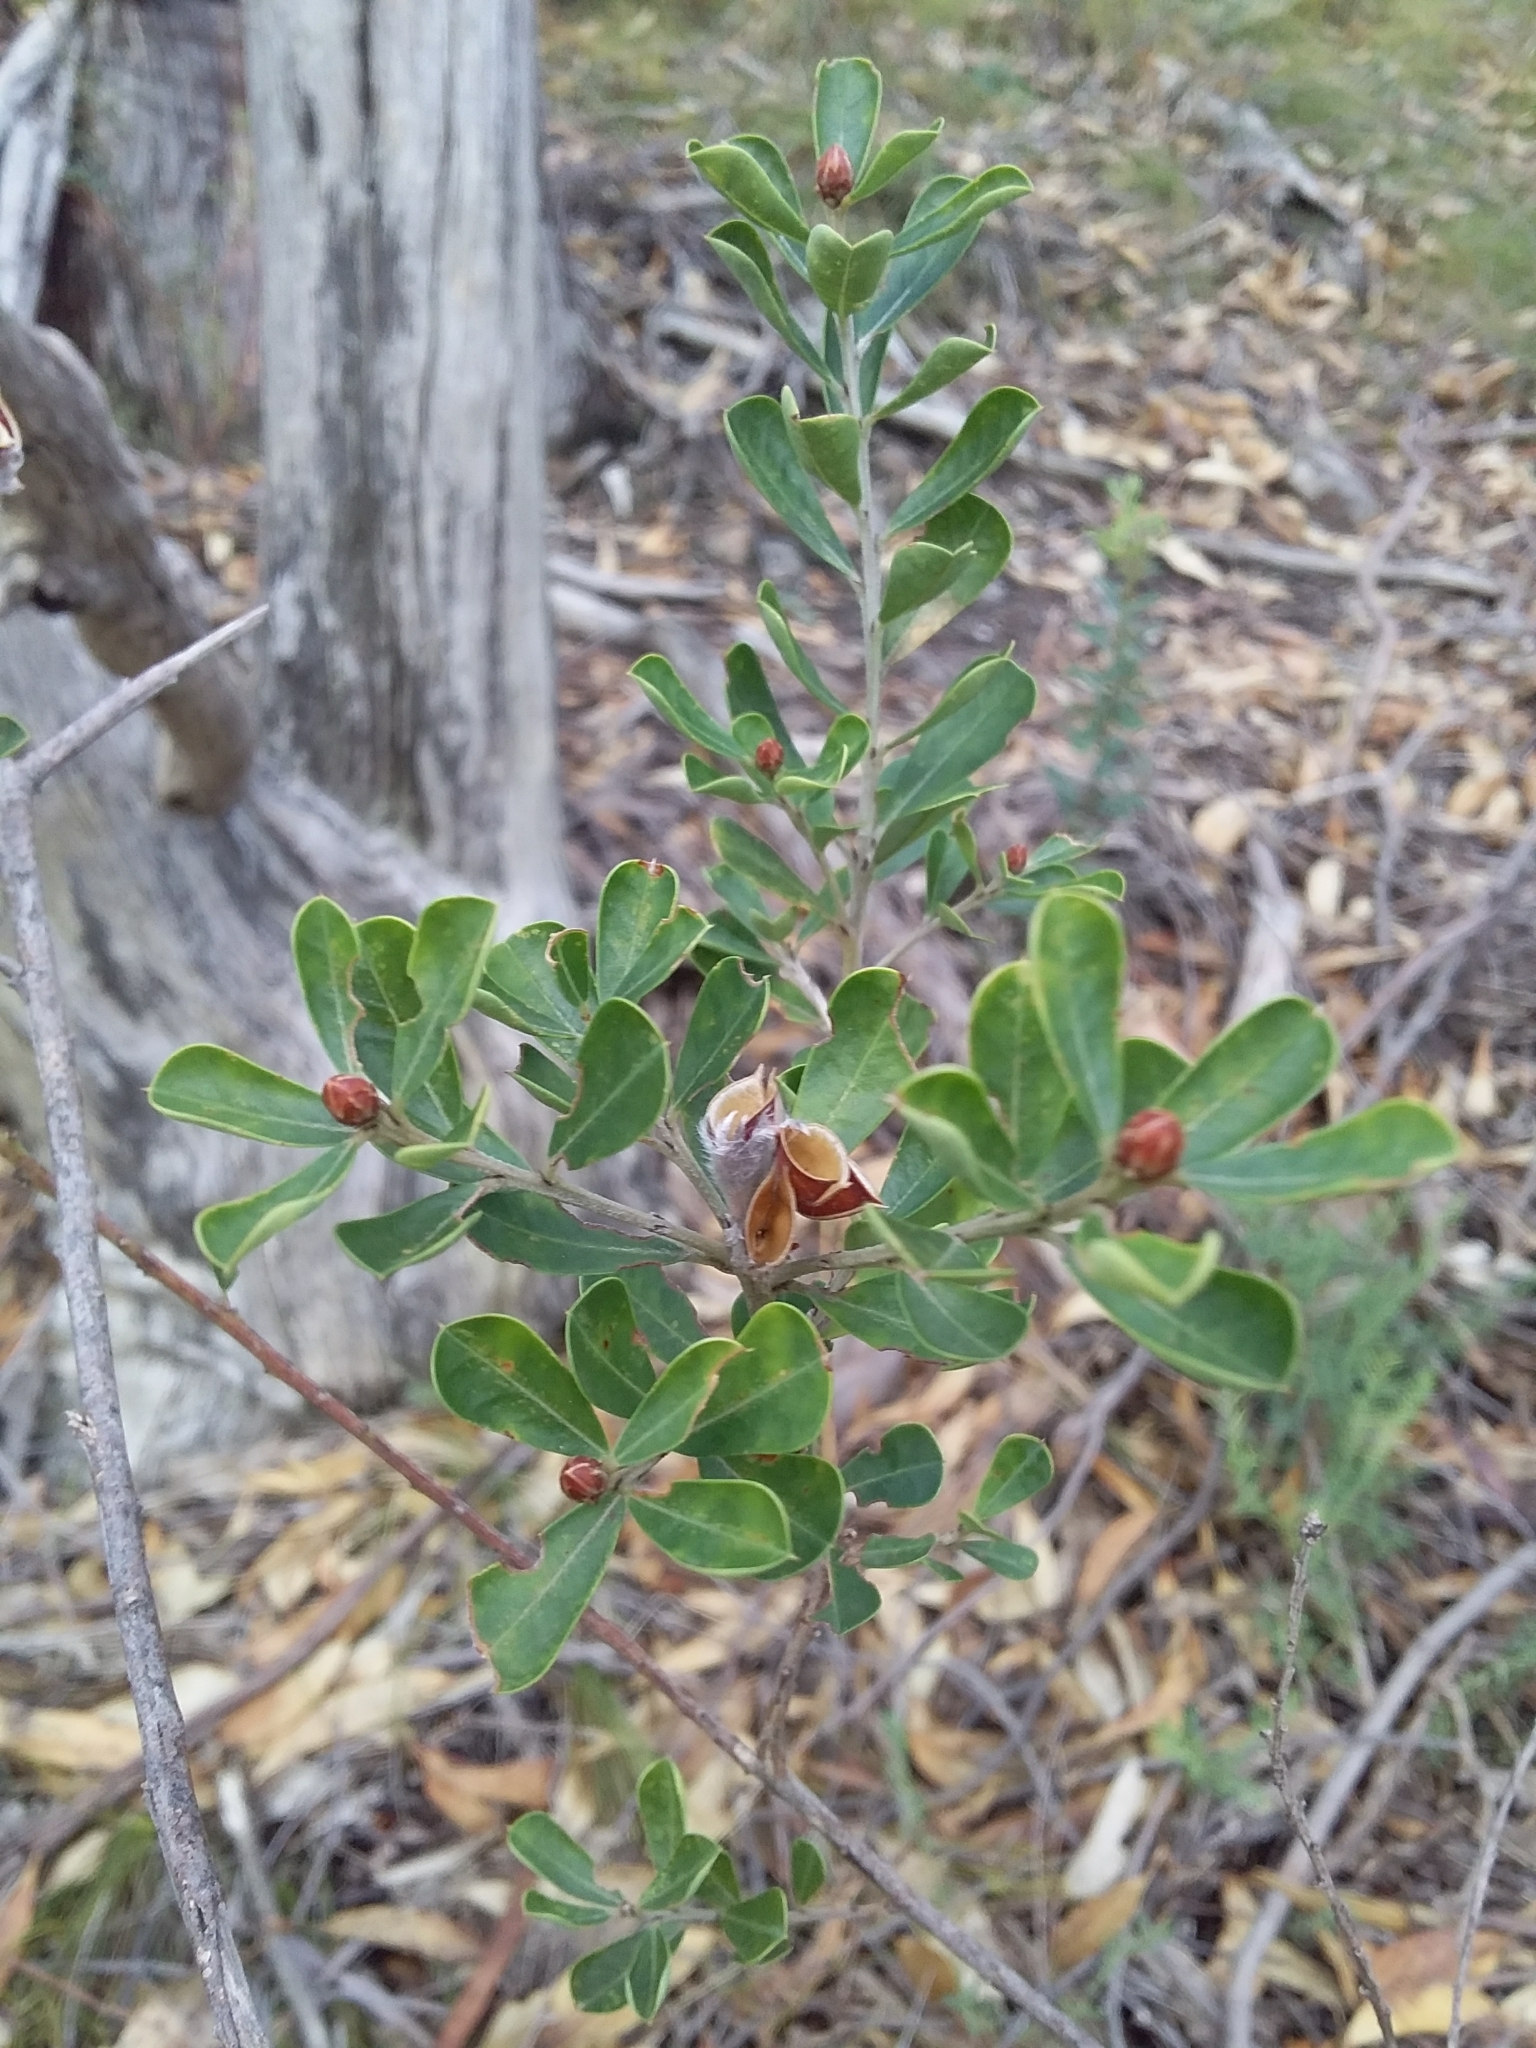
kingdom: Plantae
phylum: Tracheophyta
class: Magnoliopsida
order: Fabales
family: Fabaceae
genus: Pultenaea
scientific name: Pultenaea daphnoides
